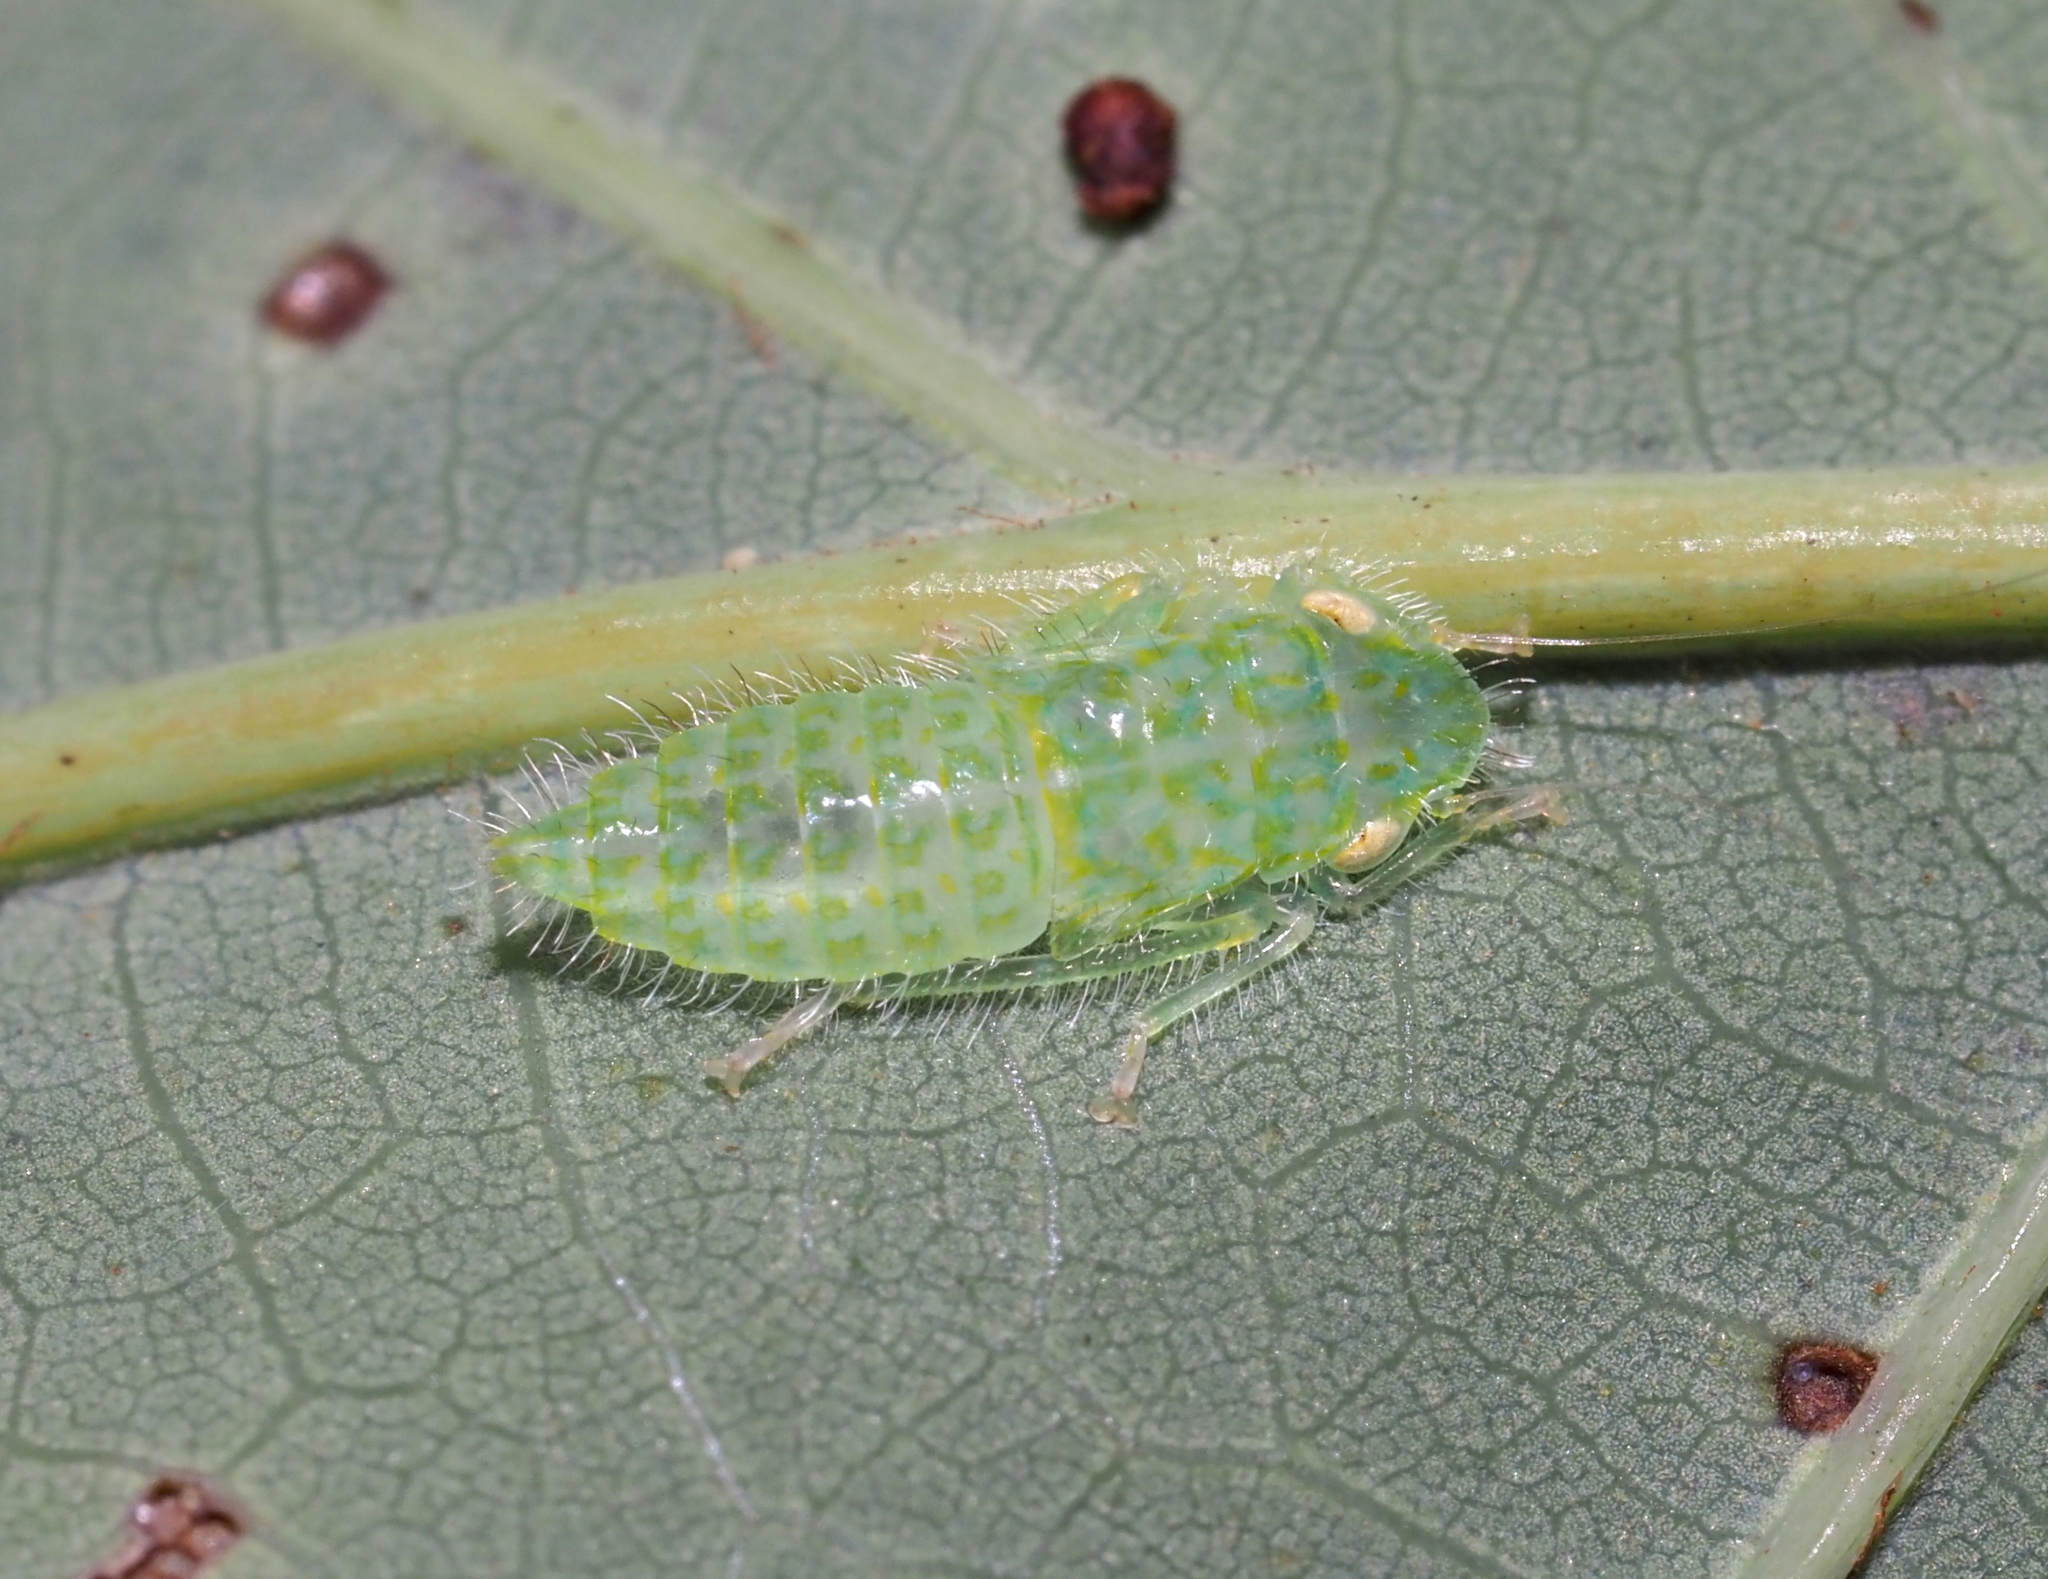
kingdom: Animalia
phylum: Arthropoda
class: Insecta
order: Hemiptera
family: Cicadellidae
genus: Rugosana
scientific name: Rugosana querci
